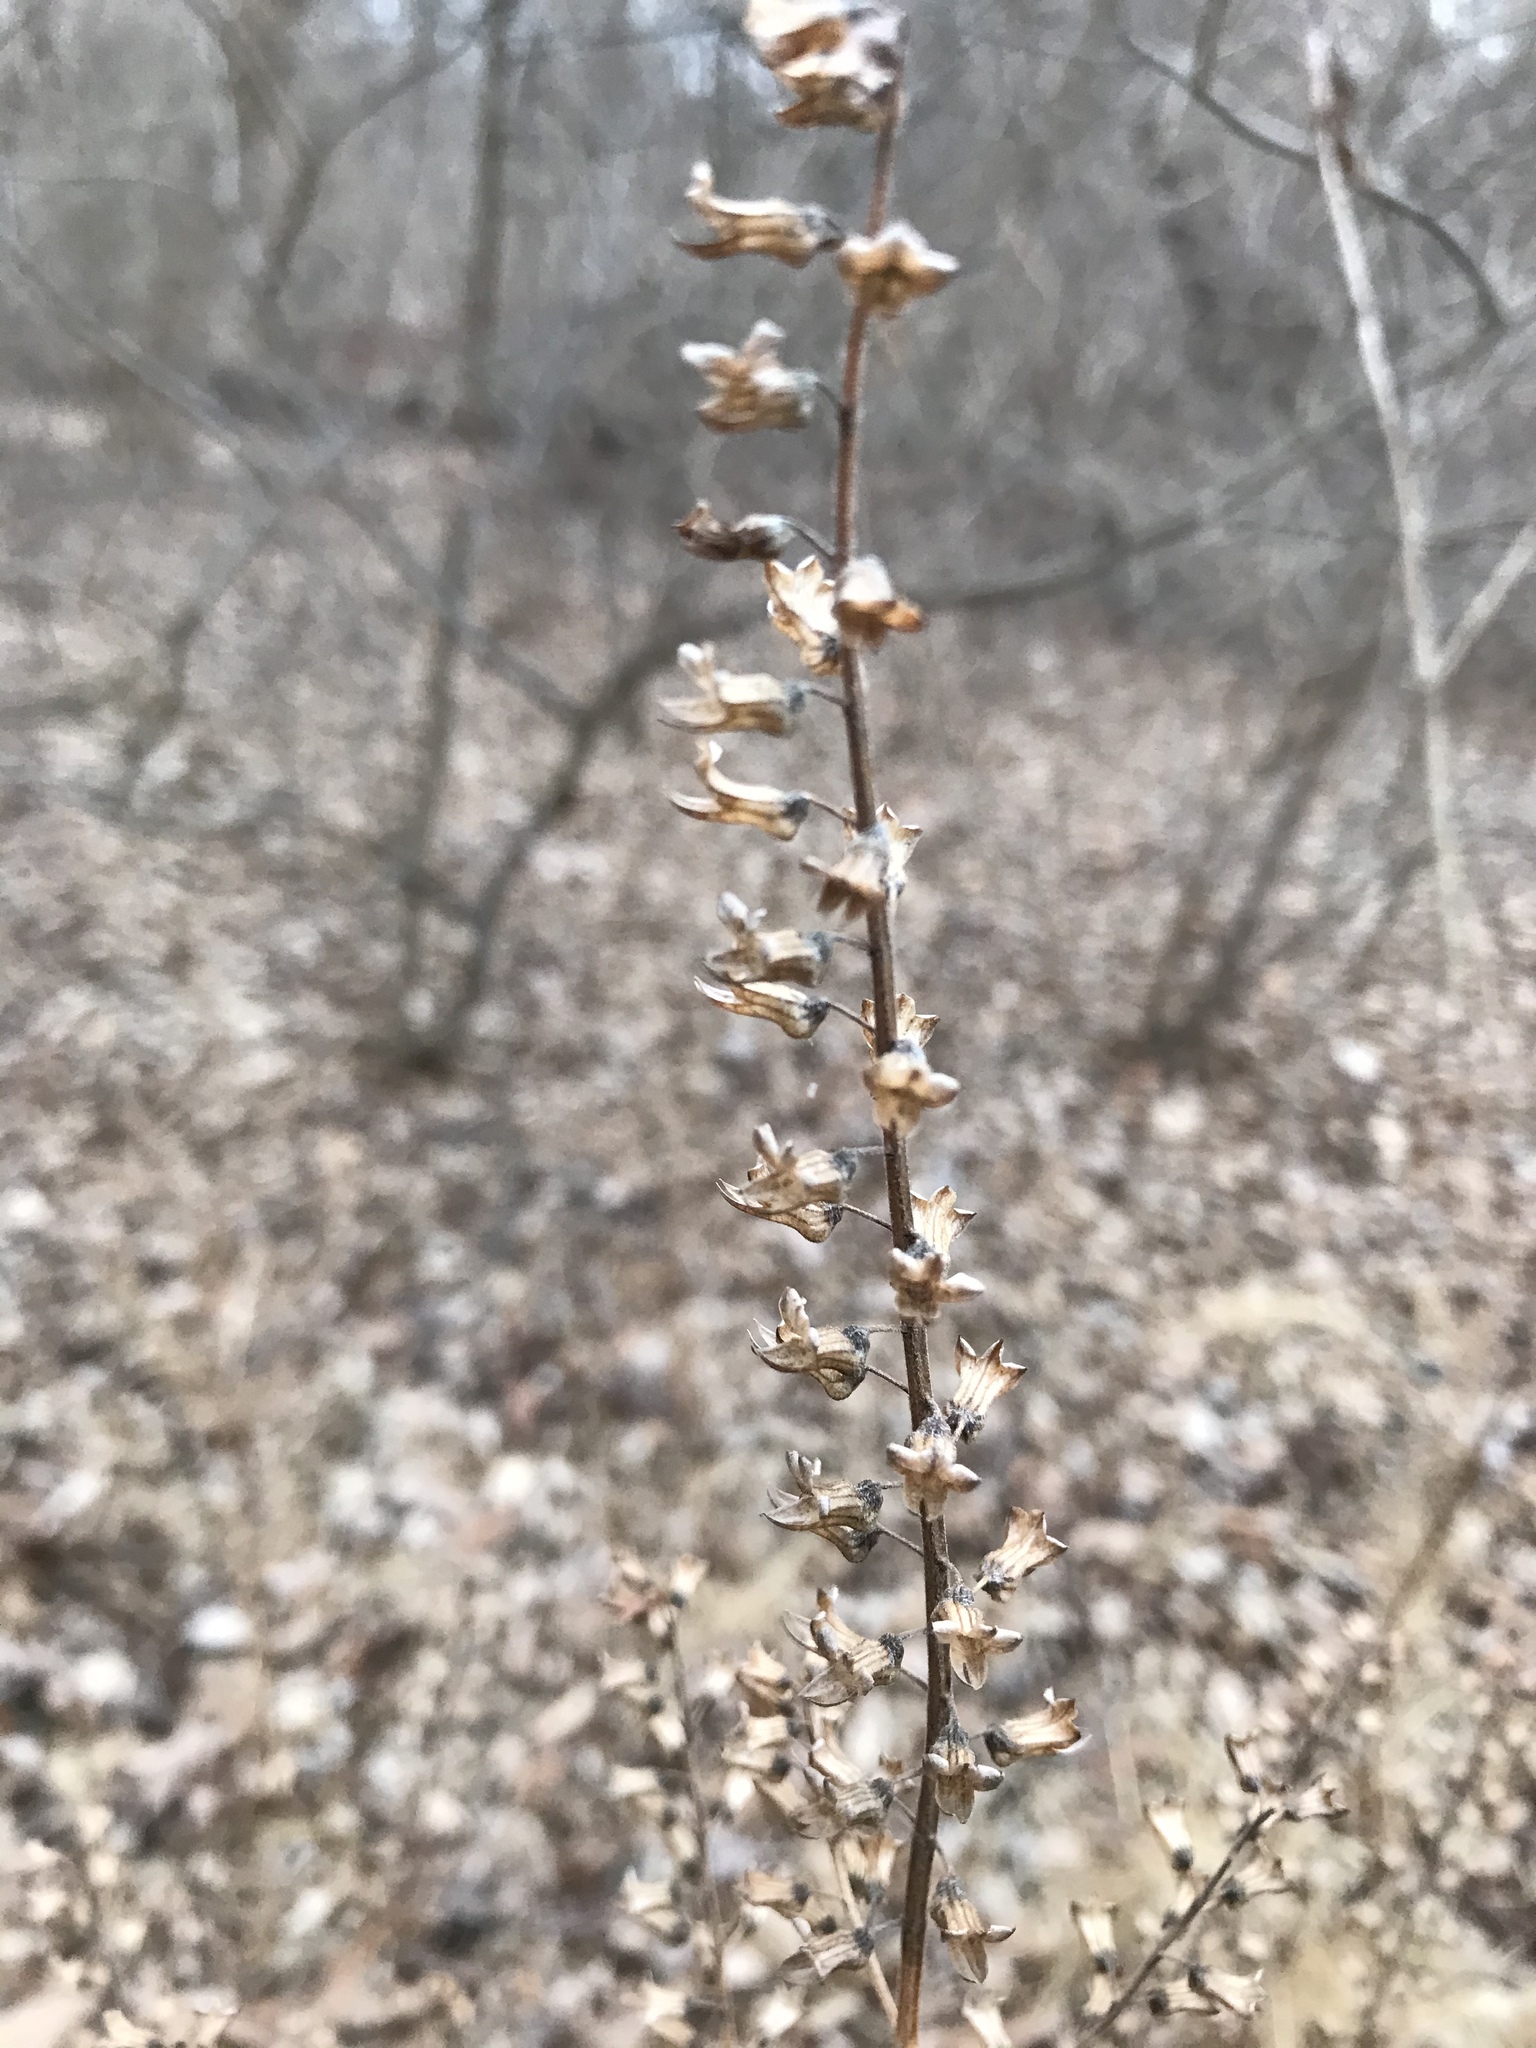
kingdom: Plantae
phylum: Tracheophyta
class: Magnoliopsida
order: Lamiales
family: Lamiaceae
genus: Perilla
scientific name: Perilla frutescens
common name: Perilla
